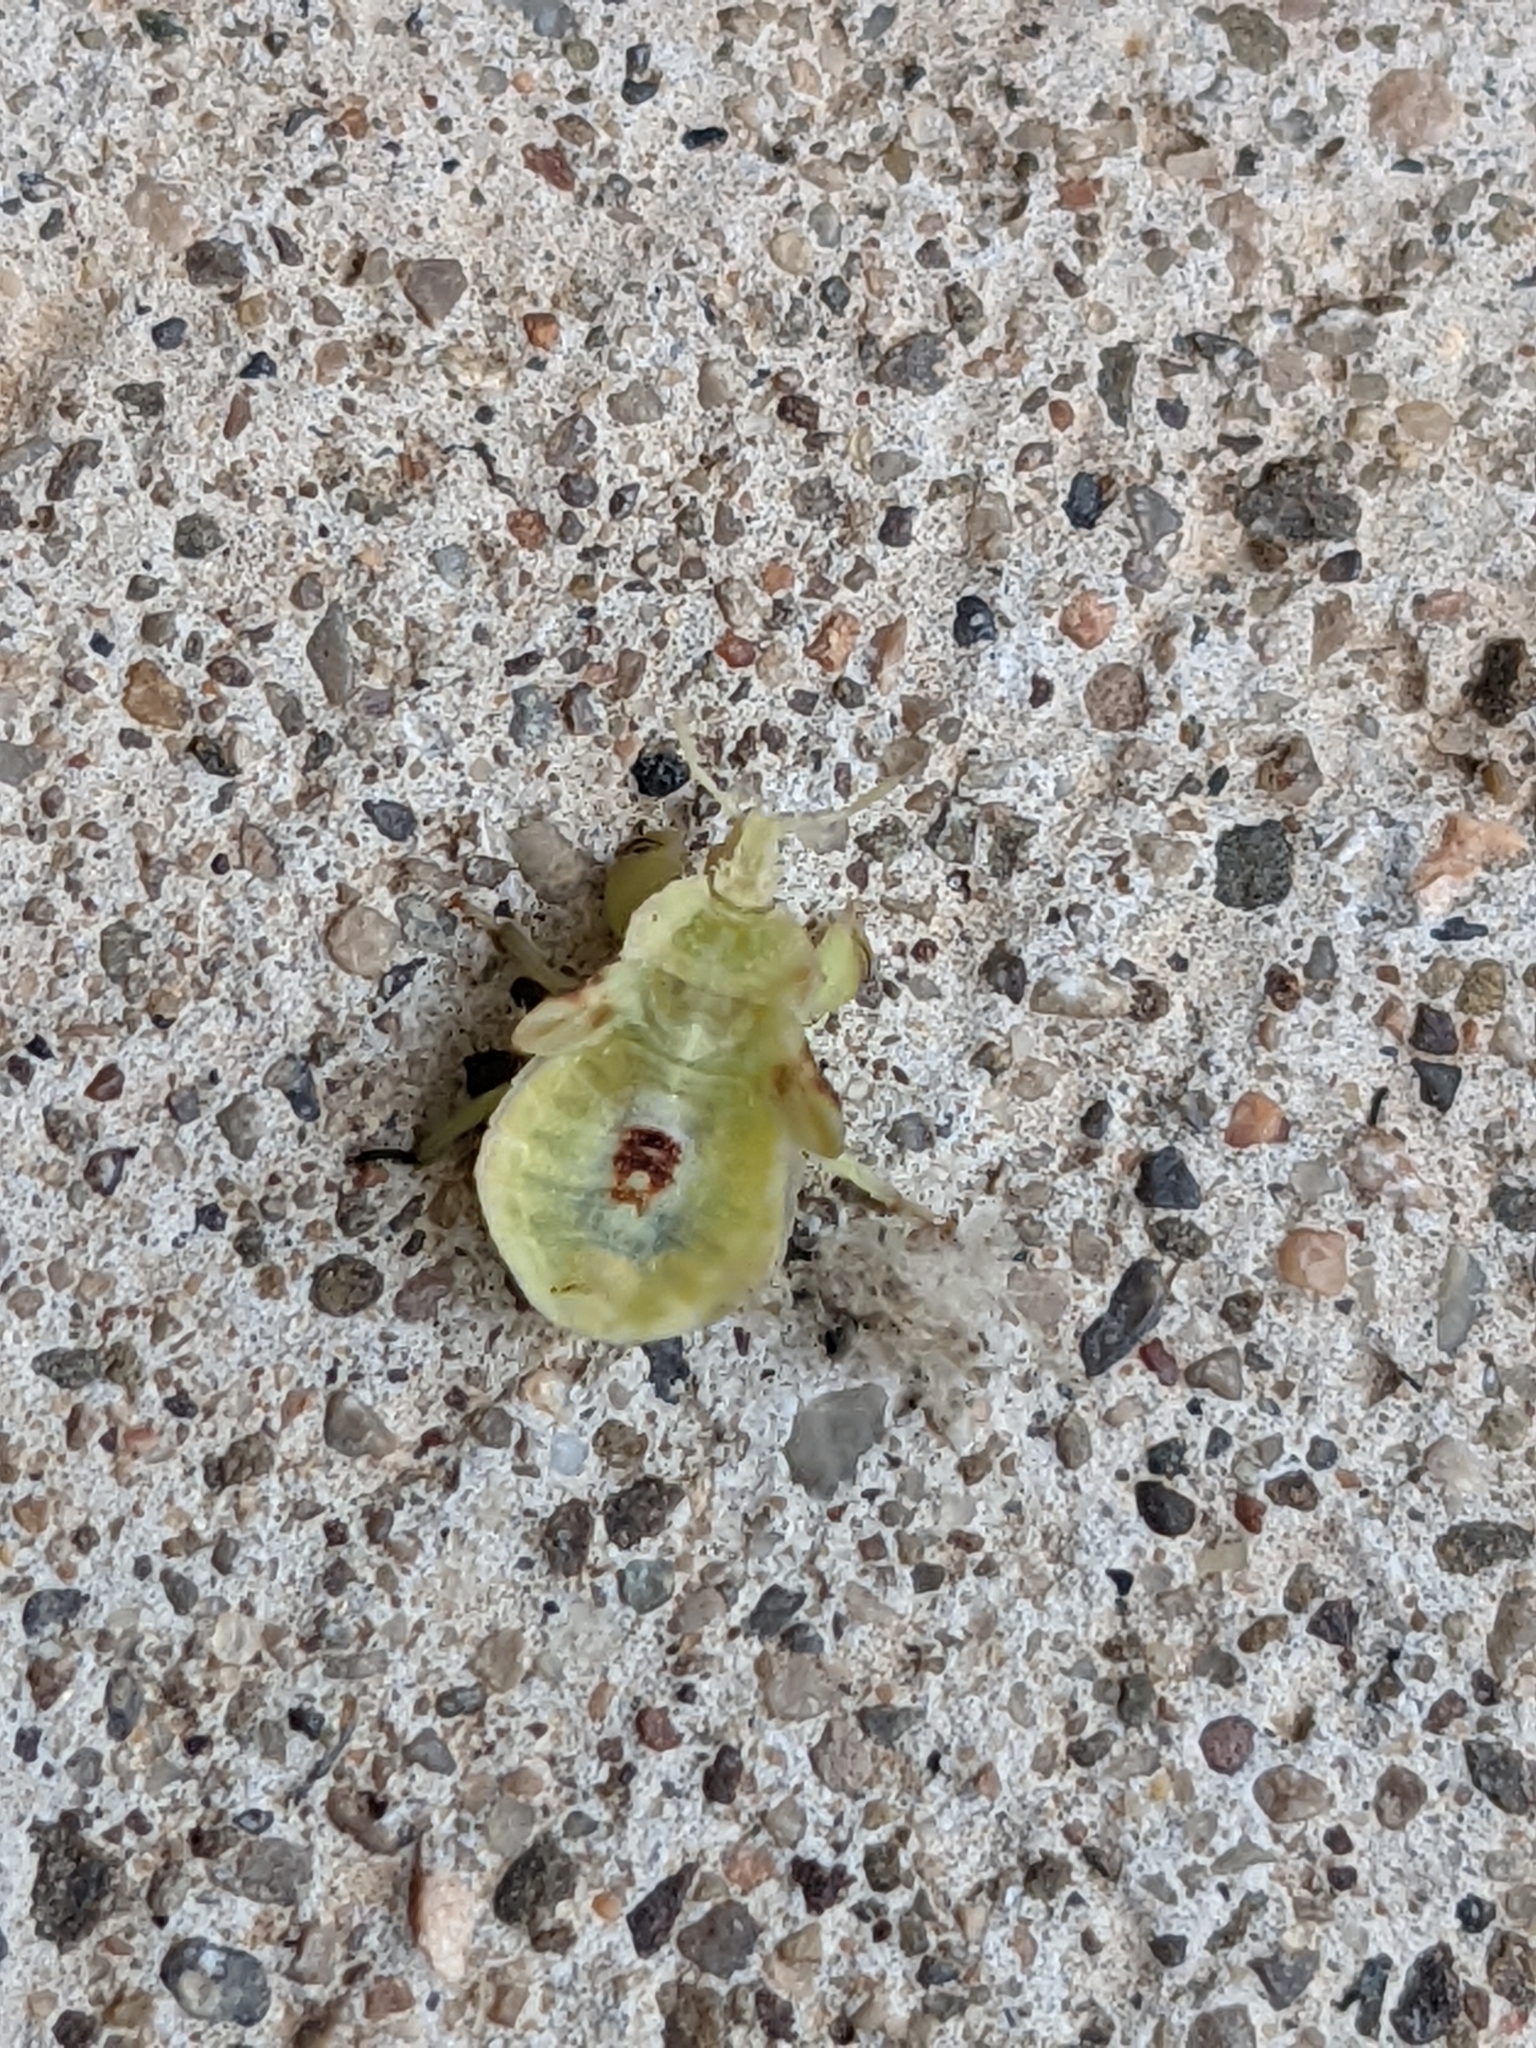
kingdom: Animalia
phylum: Arthropoda
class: Insecta
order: Hemiptera
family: Reduviidae
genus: Phymata
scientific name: Phymata americana
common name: Jagged ambush bug
